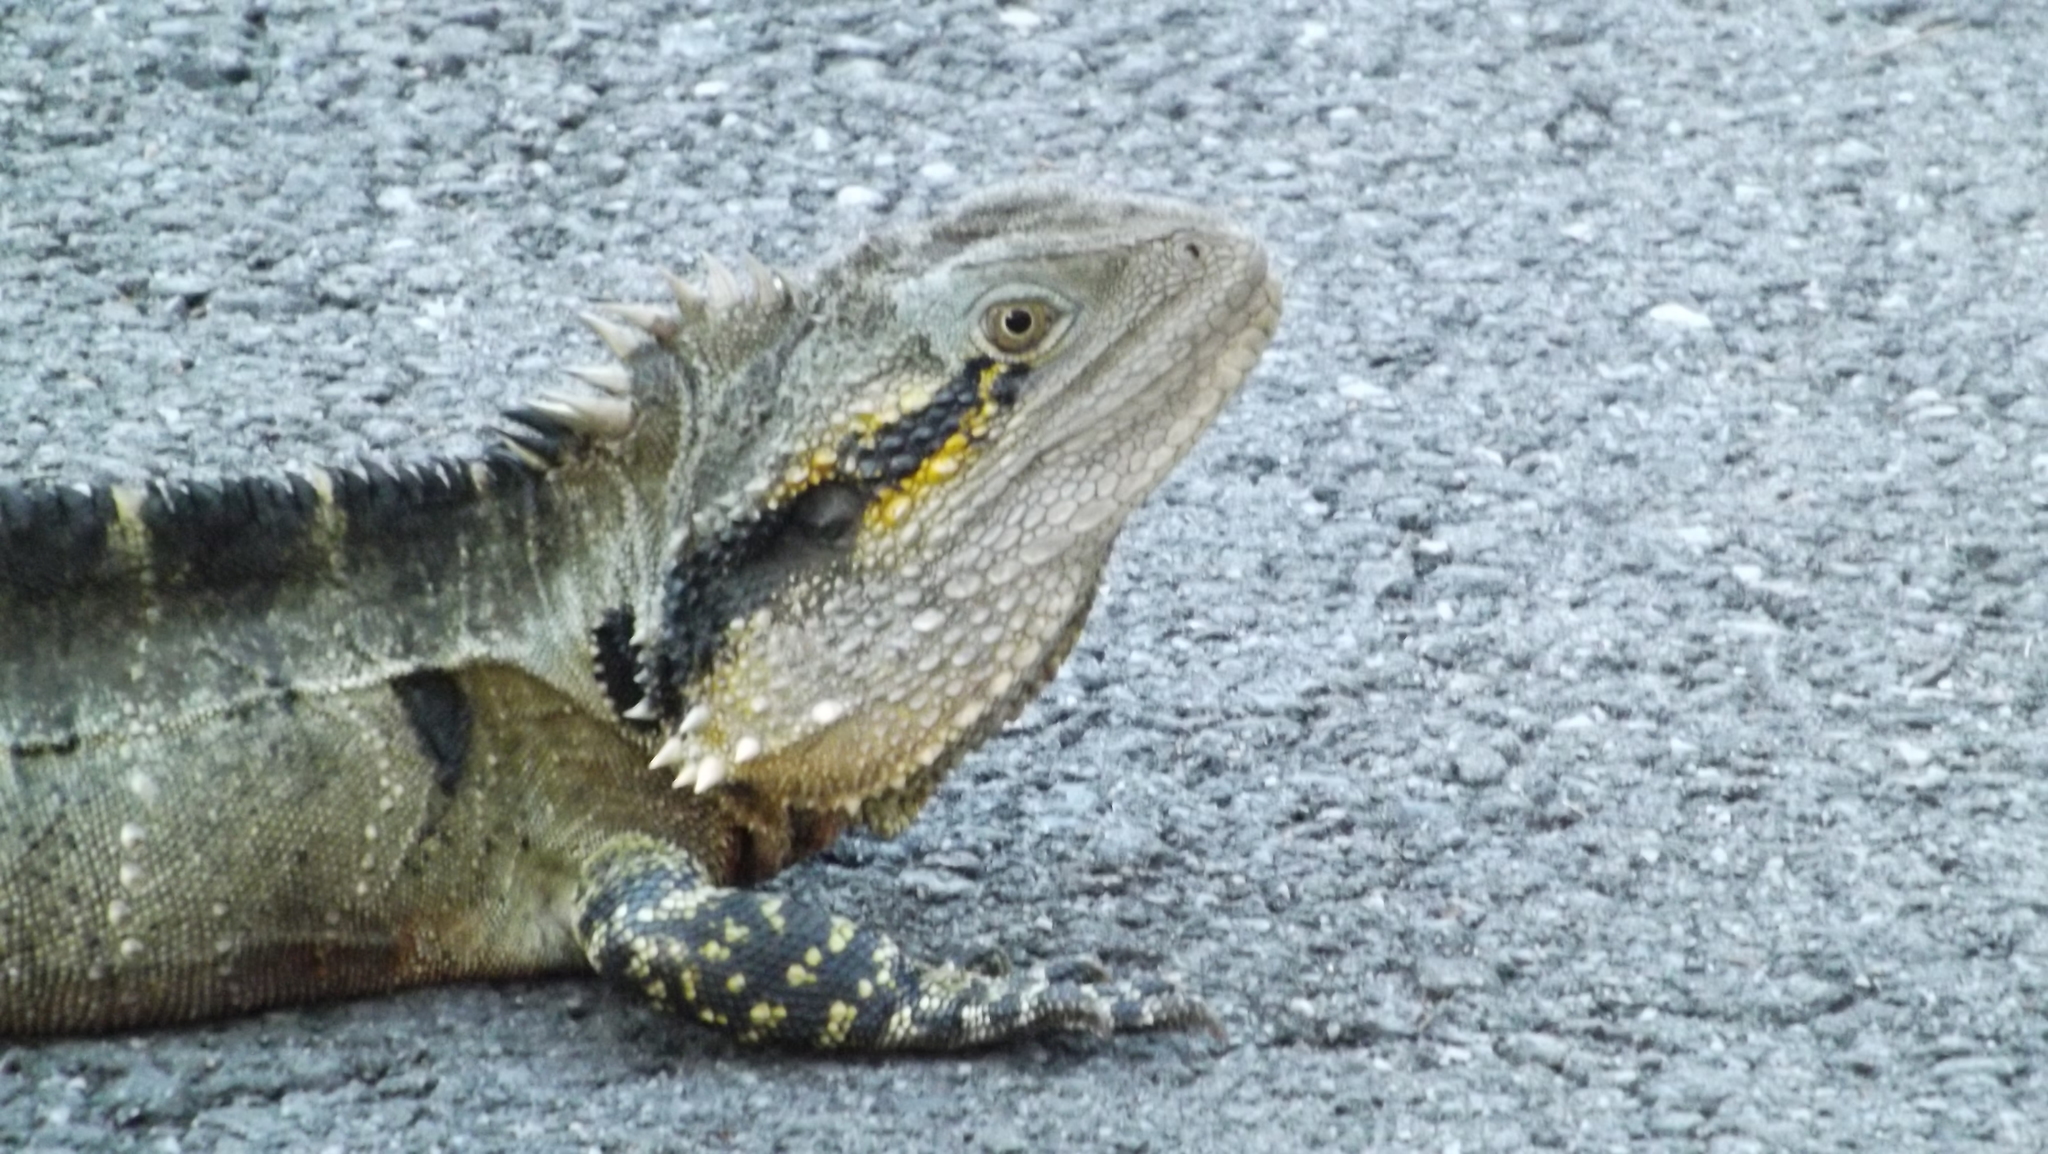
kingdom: Animalia
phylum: Chordata
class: Squamata
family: Agamidae
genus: Intellagama
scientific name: Intellagama lesueurii
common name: Eastern water dragon
